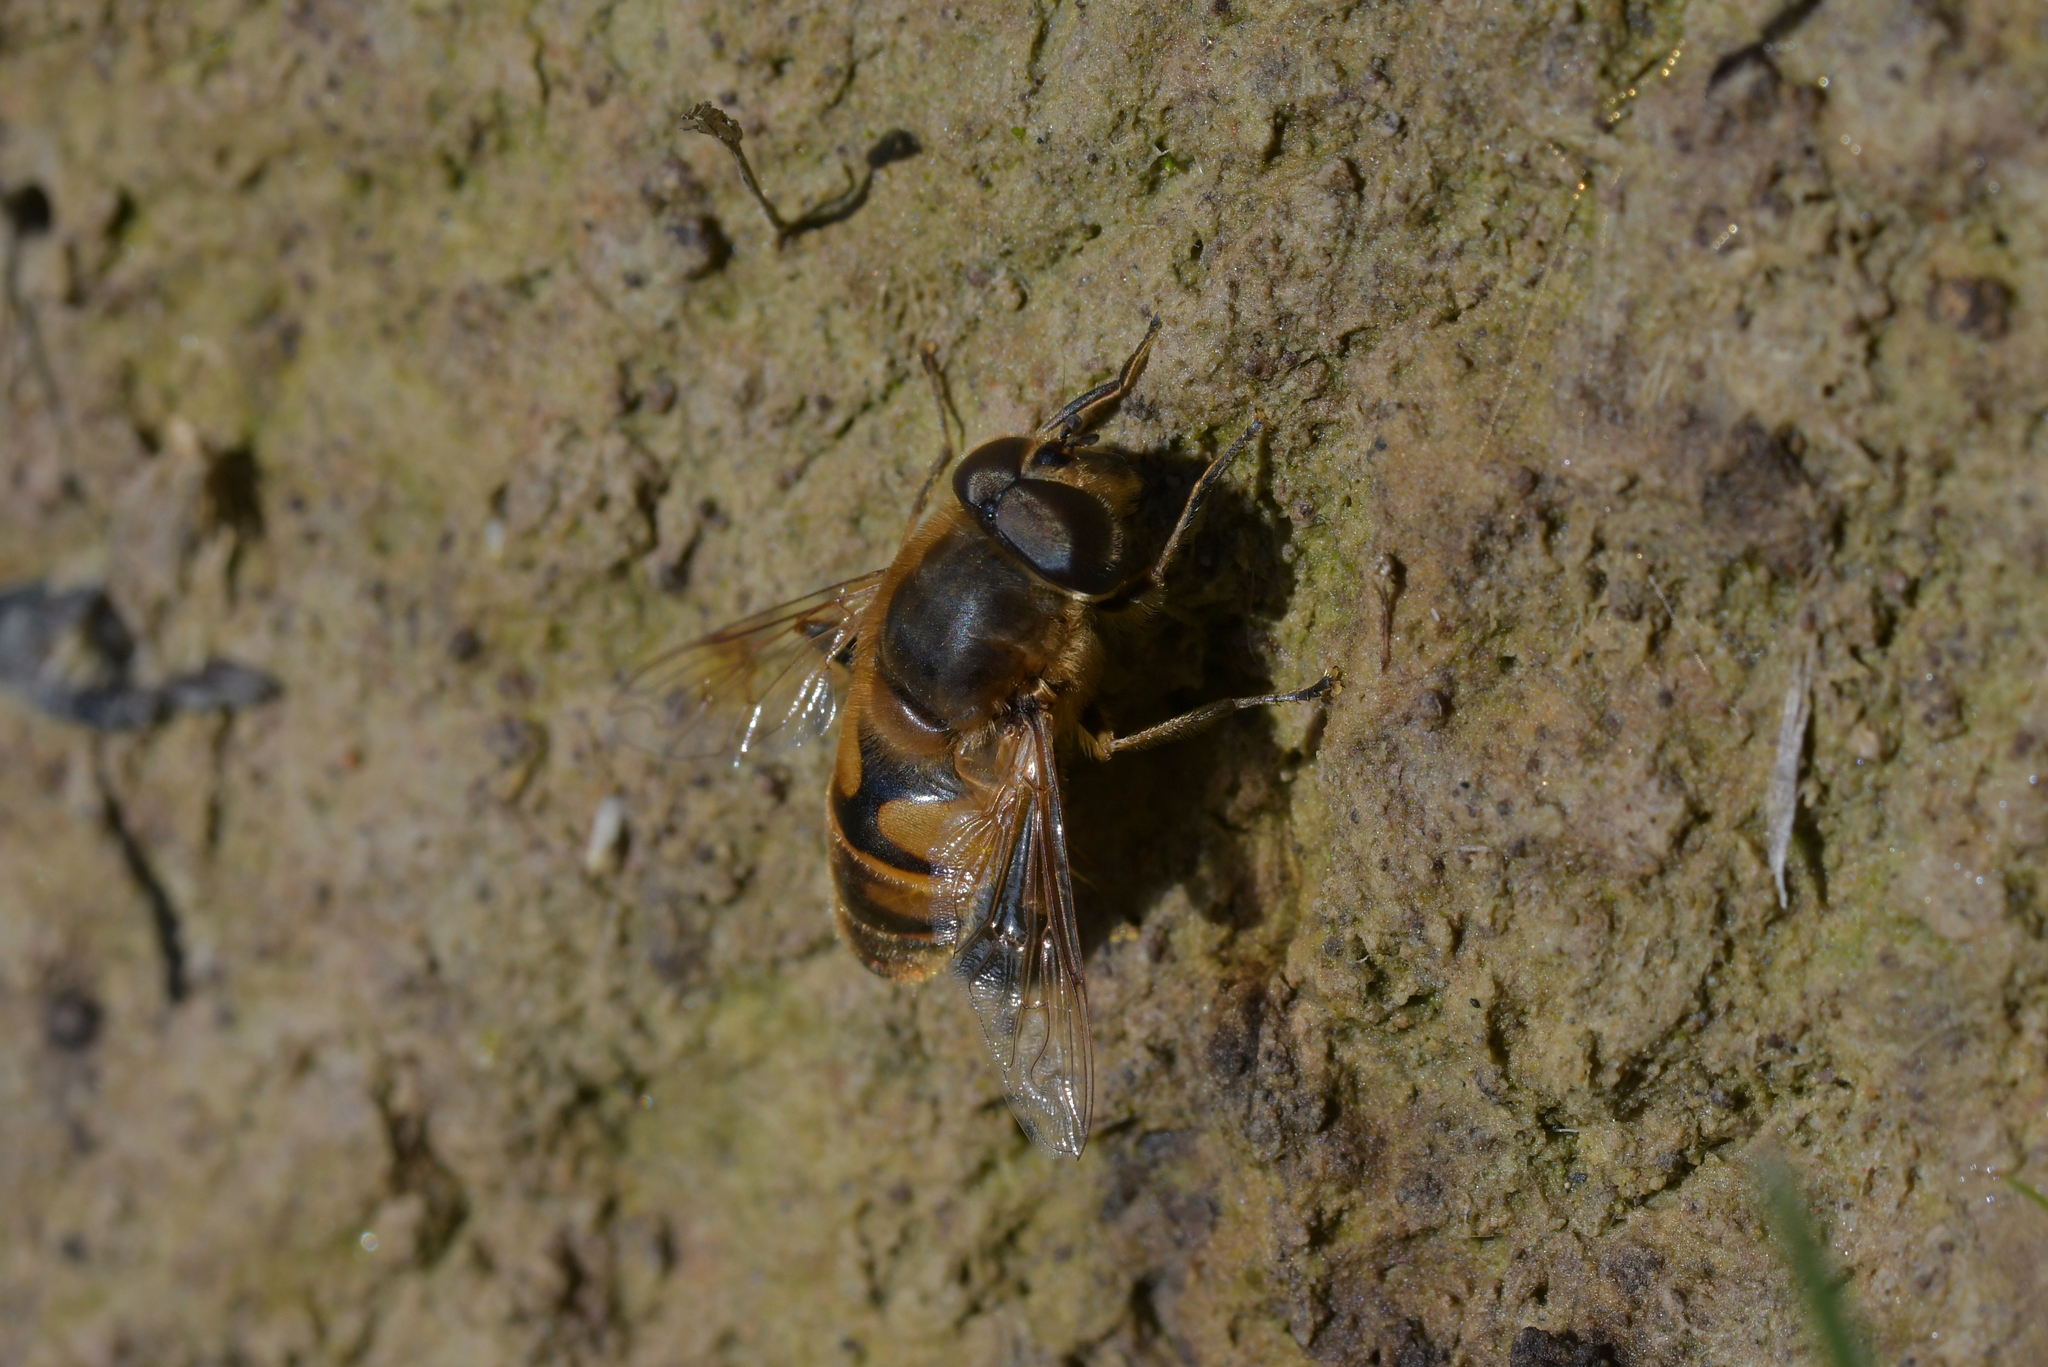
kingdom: Animalia
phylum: Arthropoda
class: Insecta
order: Diptera
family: Syrphidae
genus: Eristalis
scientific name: Eristalis tenax
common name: Drone fly
